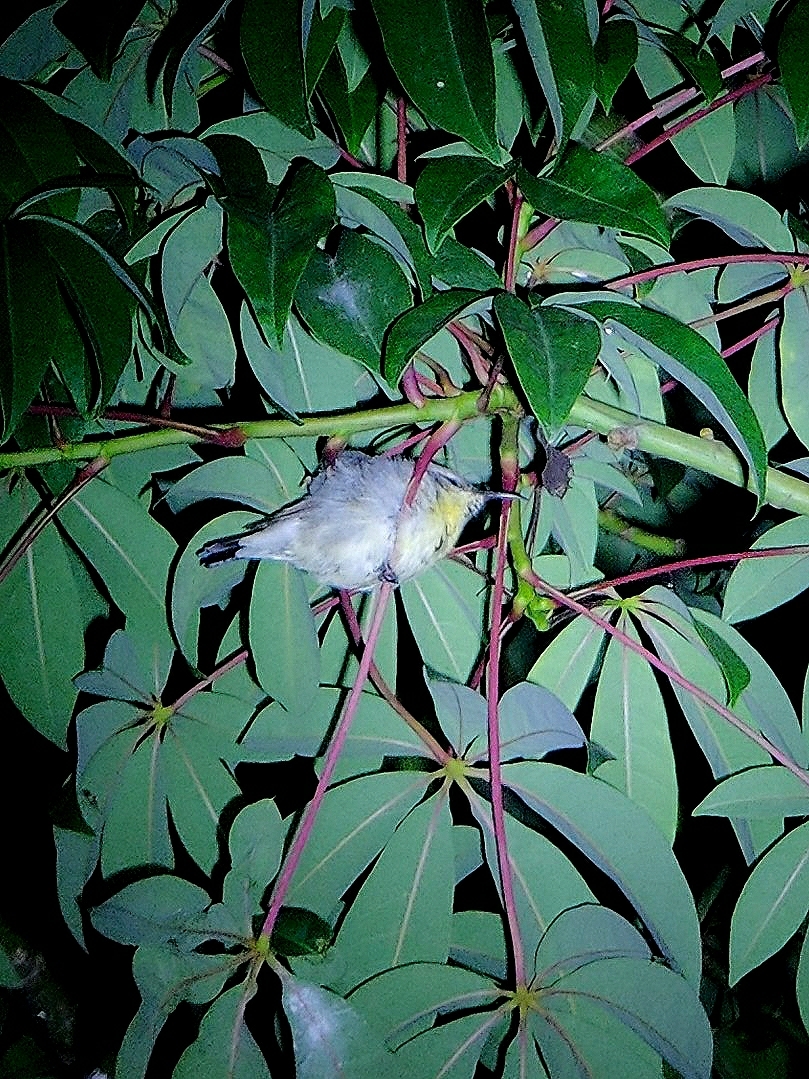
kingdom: Animalia
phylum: Chordata
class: Aves
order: Passeriformes
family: Nectariniidae
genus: Cinnyris
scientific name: Cinnyris asiaticus
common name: Purple sunbird
